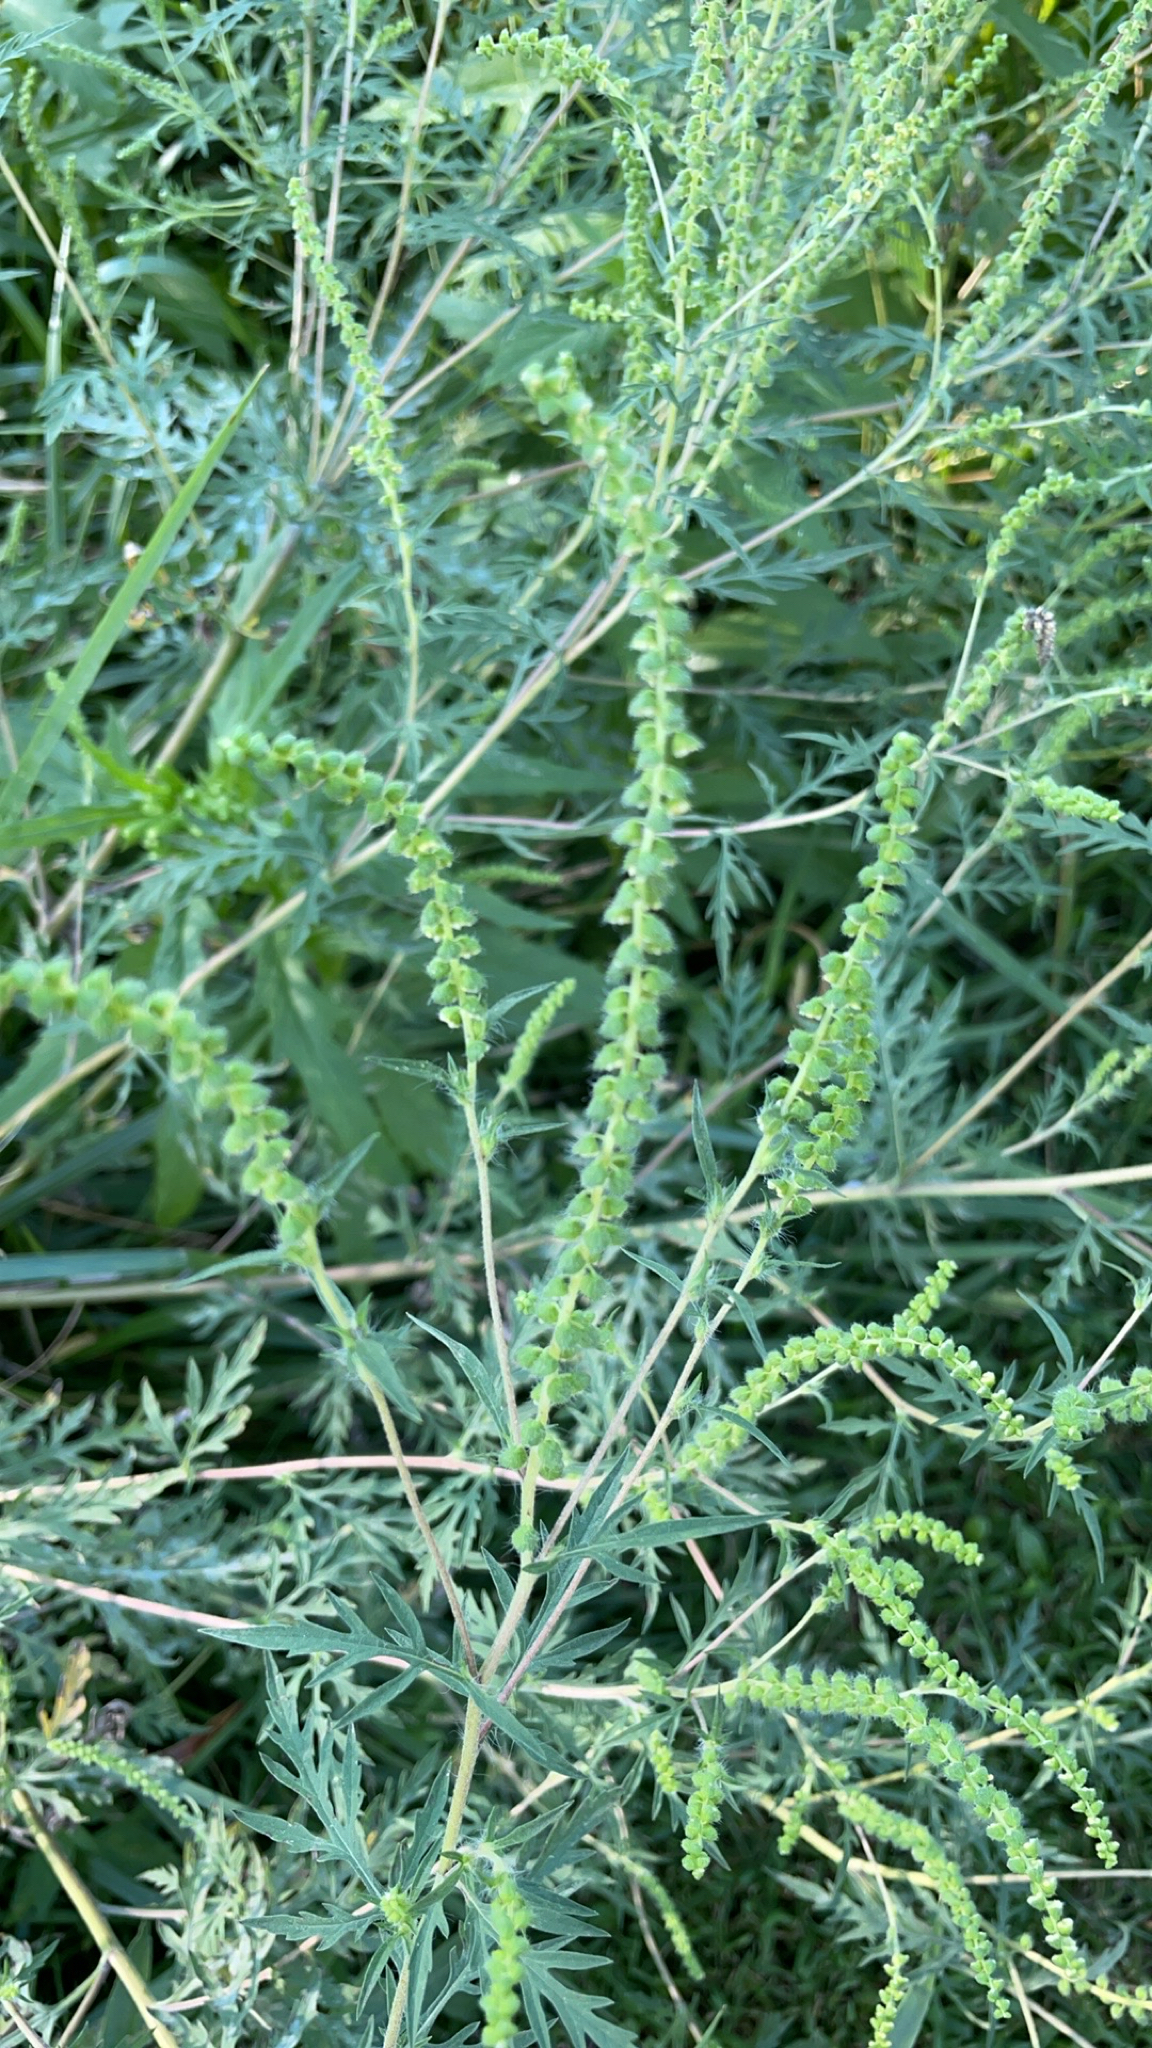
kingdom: Plantae
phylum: Tracheophyta
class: Magnoliopsida
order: Asterales
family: Asteraceae
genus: Ambrosia
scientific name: Ambrosia artemisiifolia
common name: Annual ragweed
